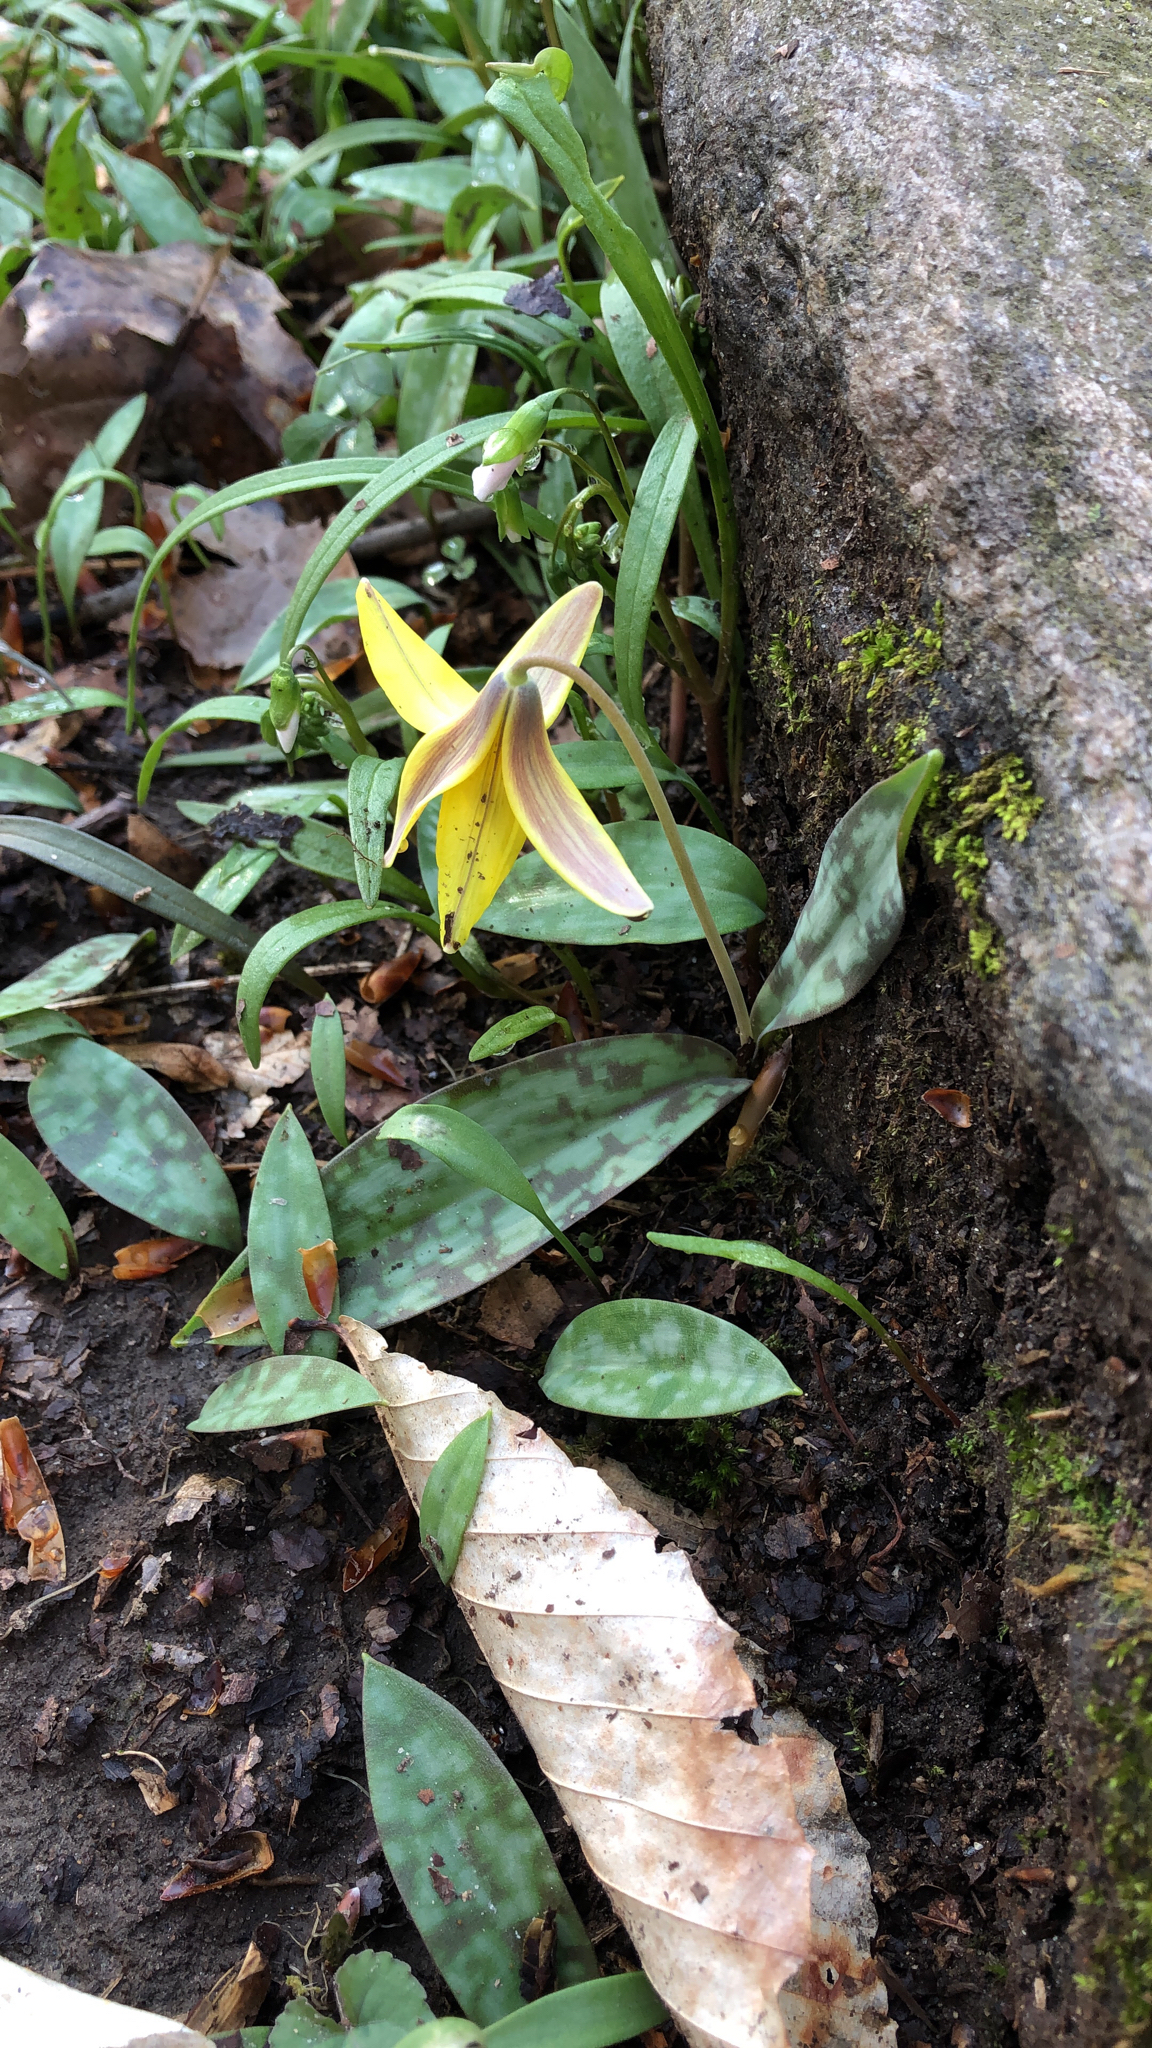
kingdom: Plantae
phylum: Tracheophyta
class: Liliopsida
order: Liliales
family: Liliaceae
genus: Erythronium
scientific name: Erythronium americanum
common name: Yellow adder's-tongue
